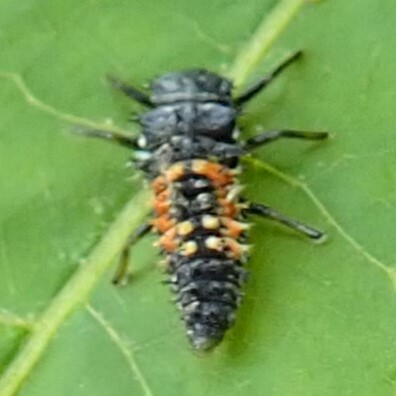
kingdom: Animalia
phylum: Arthropoda
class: Insecta
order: Coleoptera
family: Coccinellidae
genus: Harmonia
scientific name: Harmonia axyridis
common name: Harlequin ladybird
